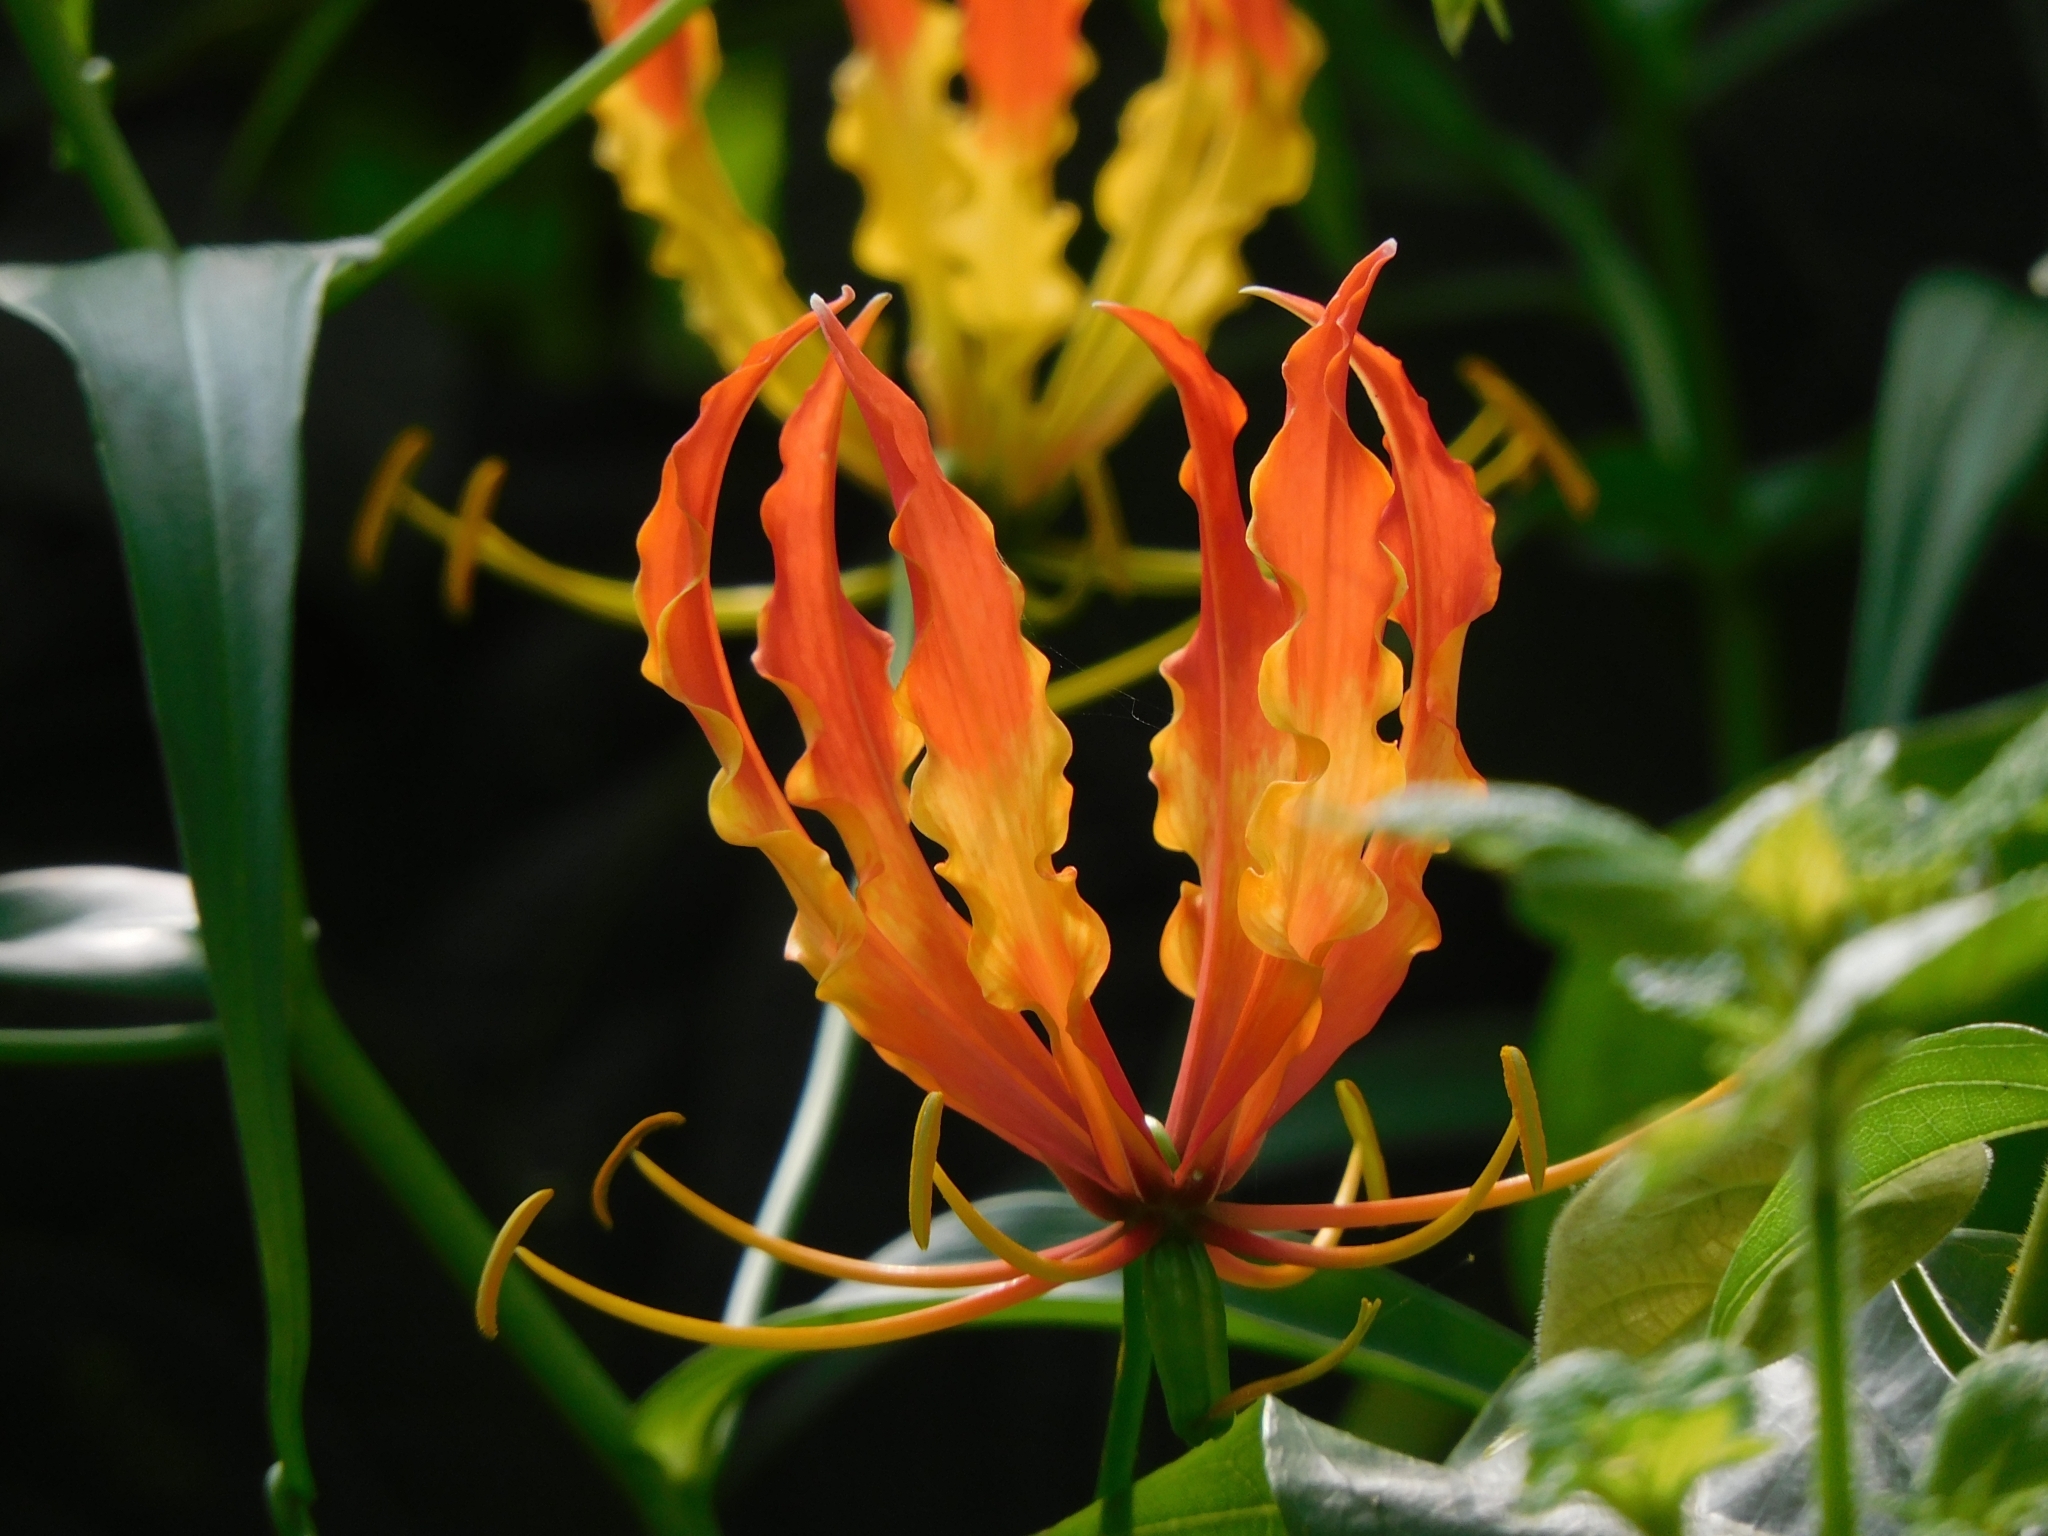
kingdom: Plantae
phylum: Tracheophyta
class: Liliopsida
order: Liliales
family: Colchicaceae
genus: Gloriosa
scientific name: Gloriosa superba
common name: Flame lily
